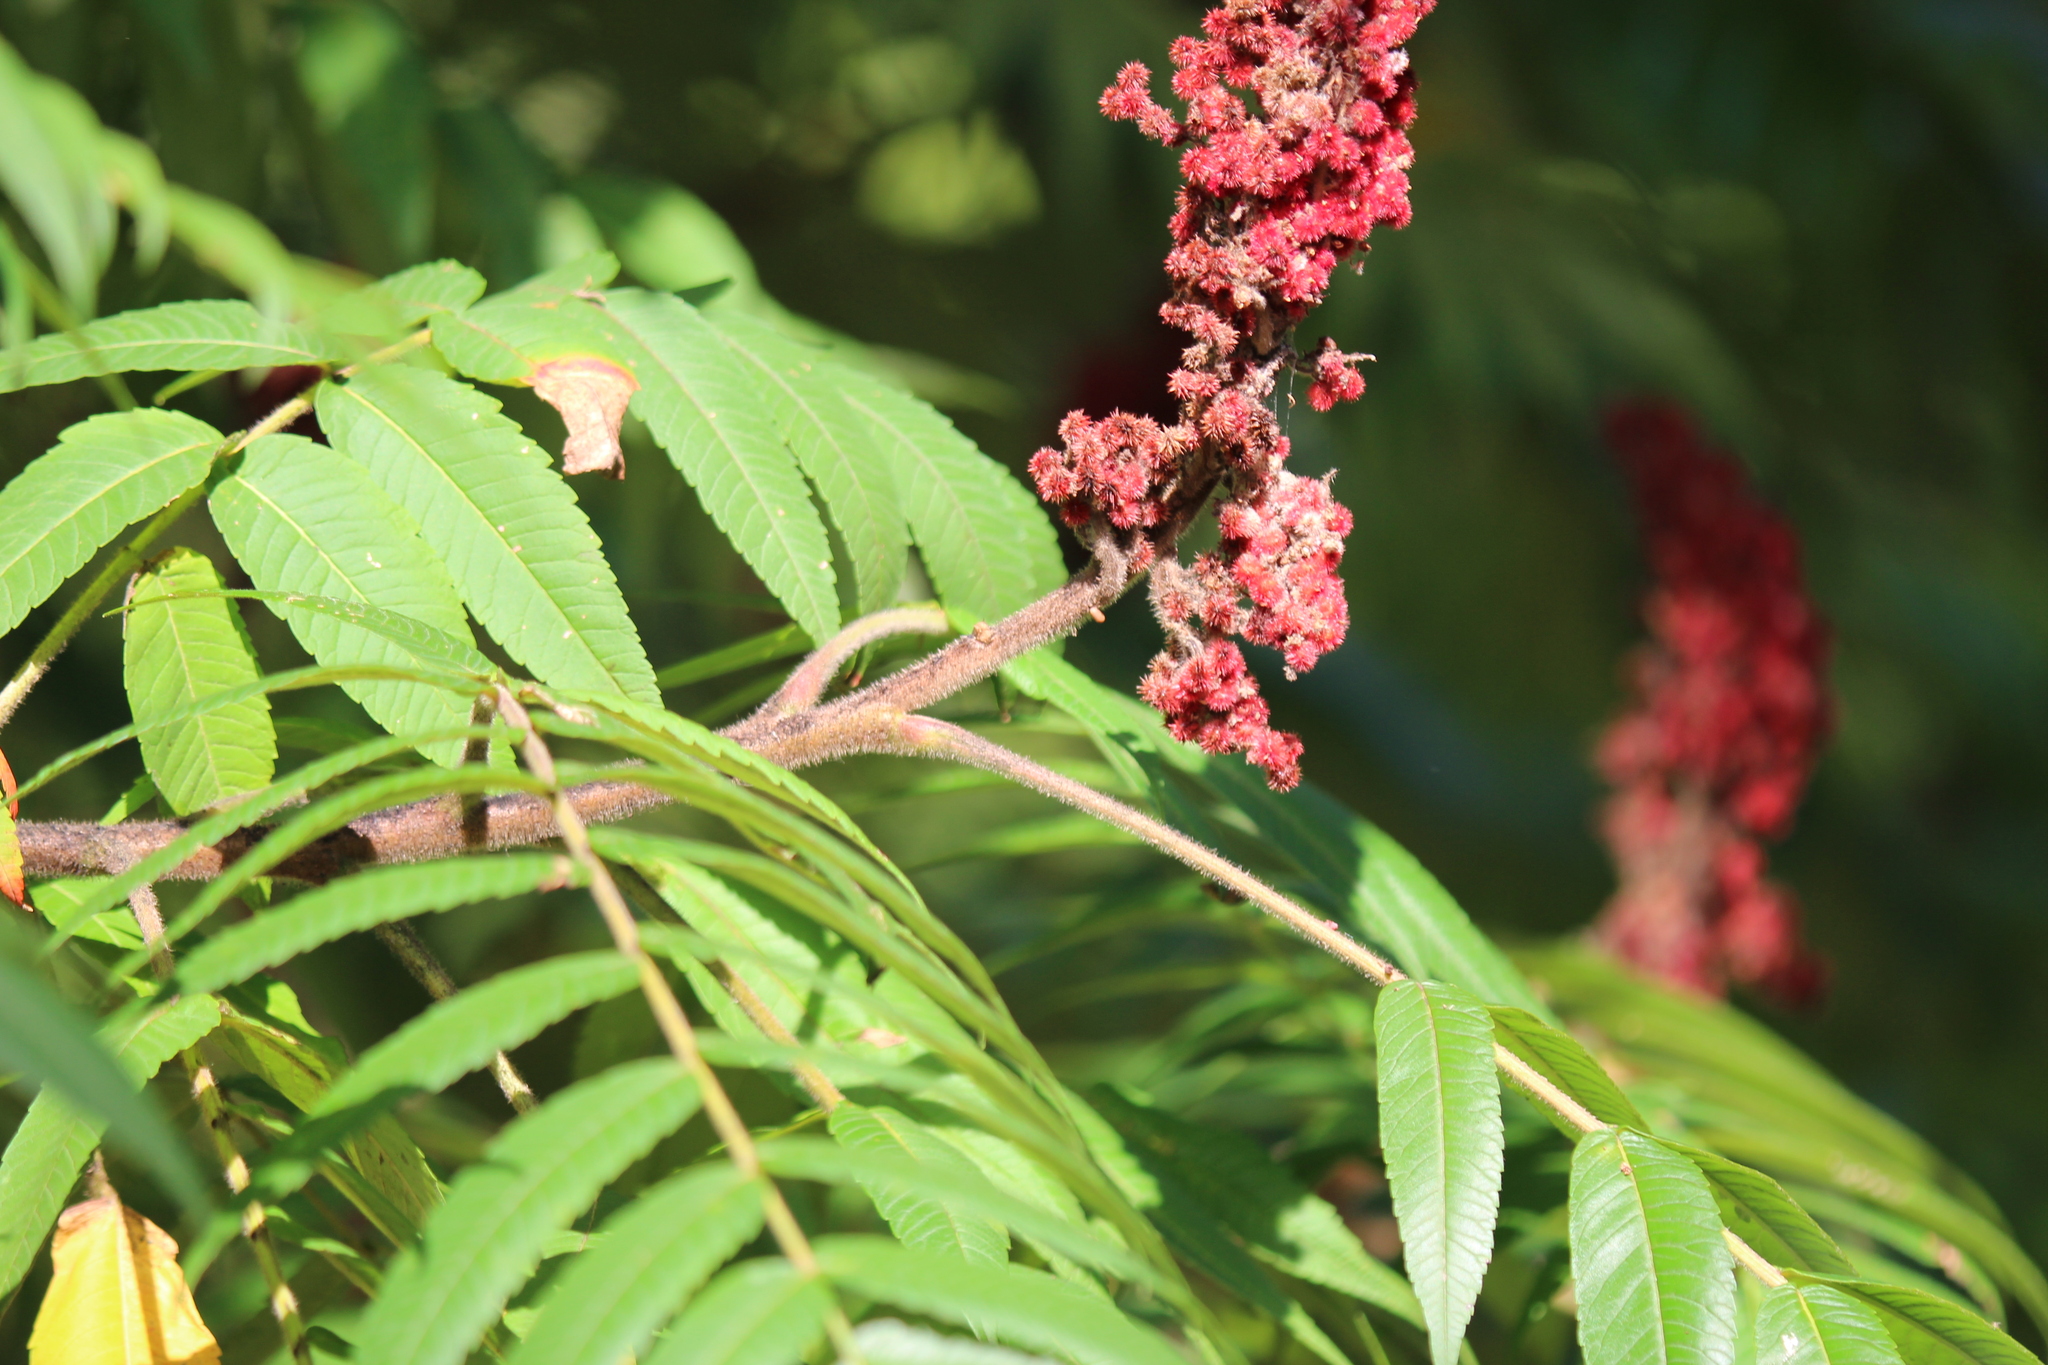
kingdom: Plantae
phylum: Tracheophyta
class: Magnoliopsida
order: Sapindales
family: Anacardiaceae
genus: Rhus
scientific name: Rhus typhina
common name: Staghorn sumac
